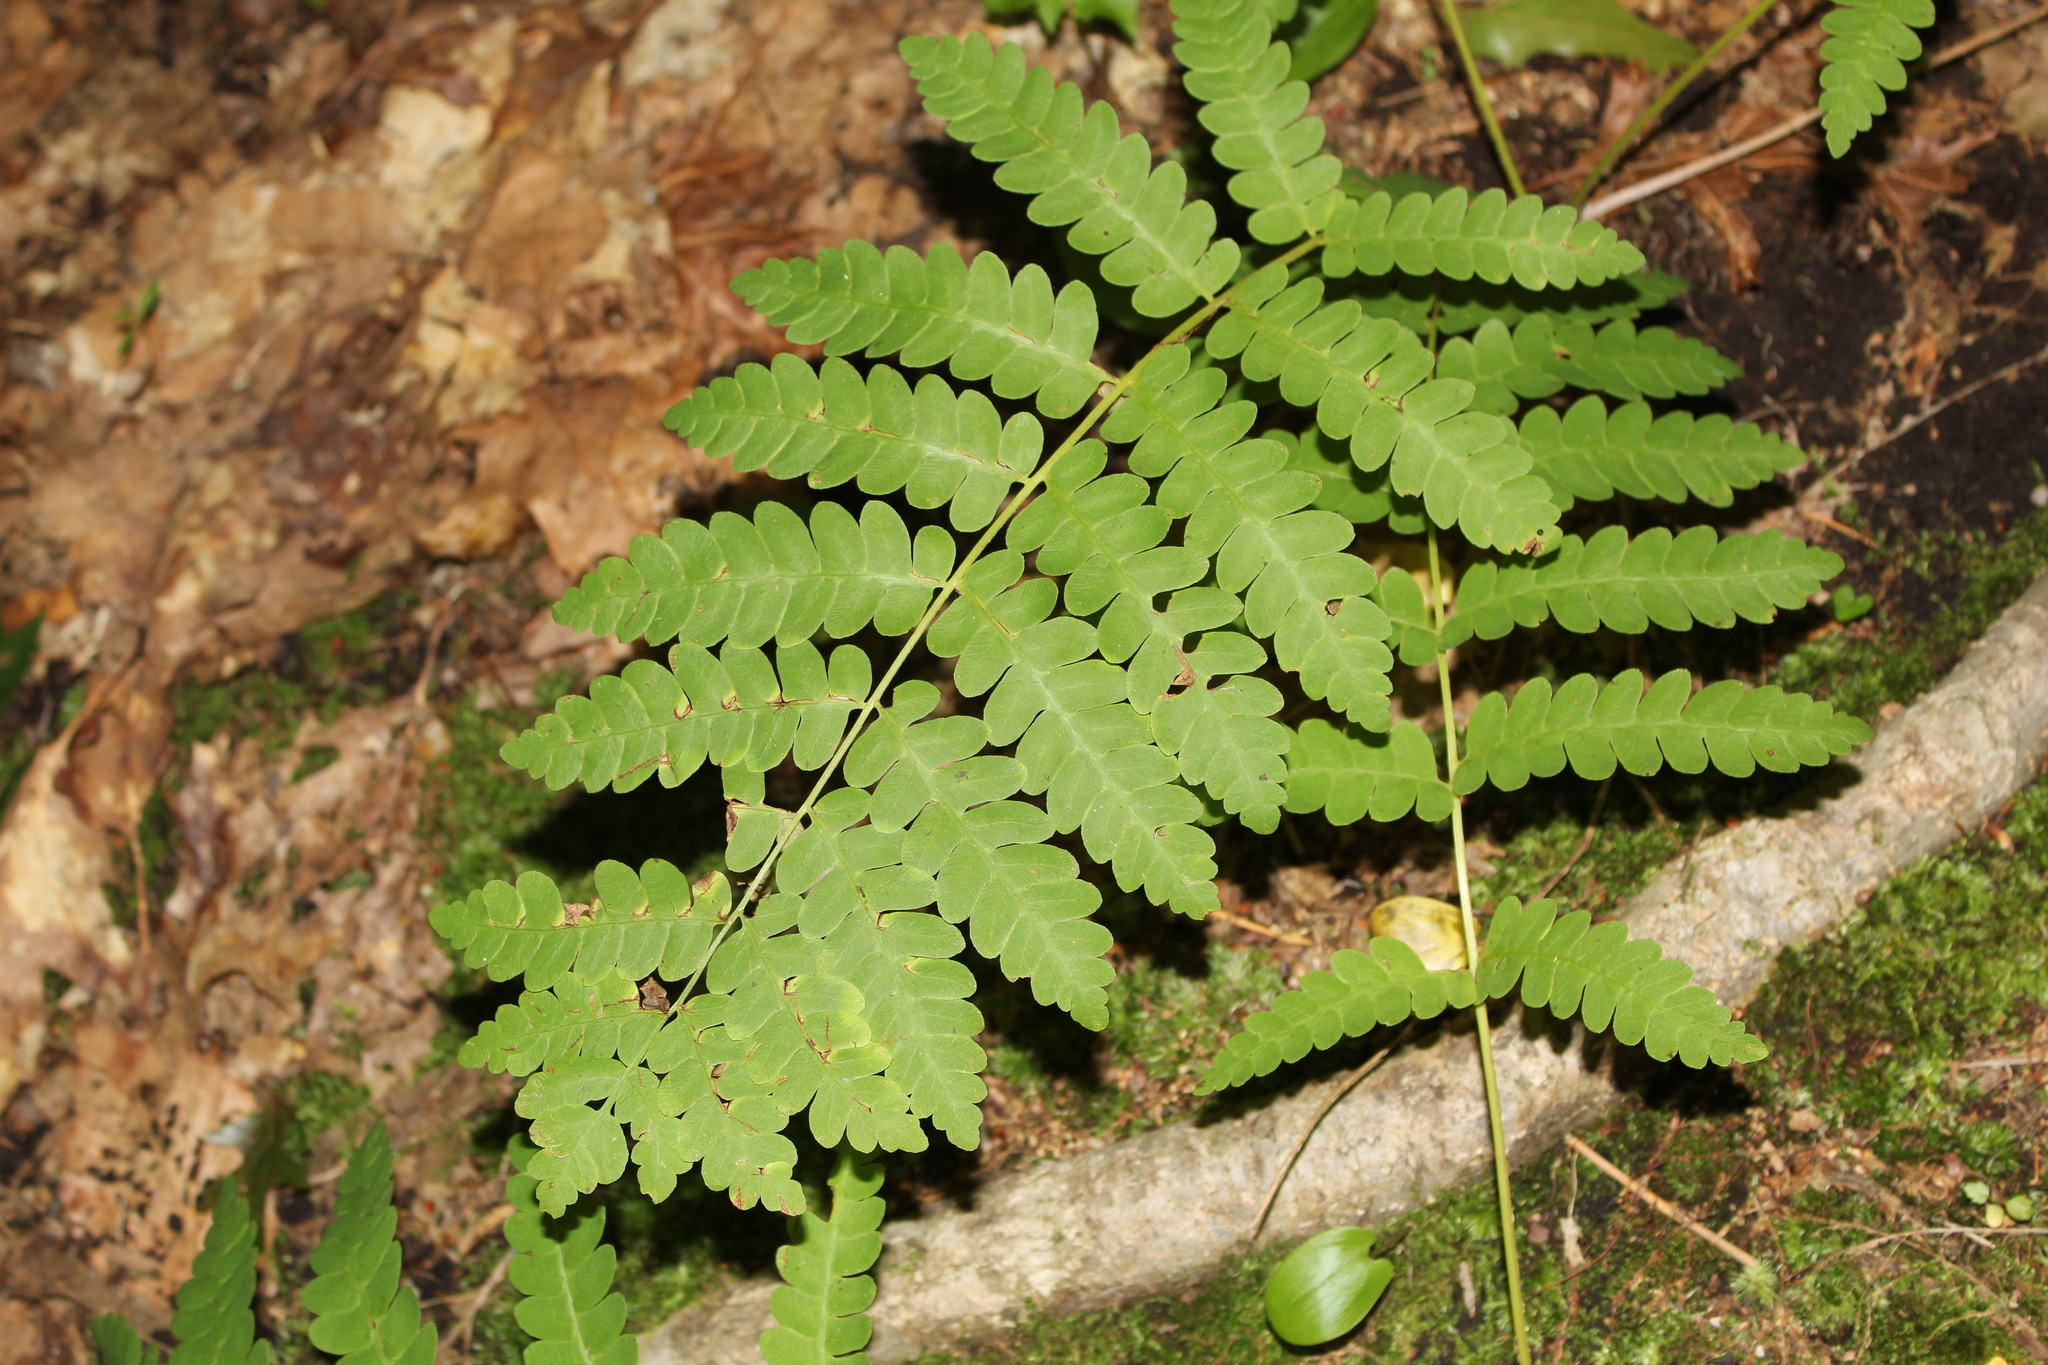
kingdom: Plantae
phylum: Tracheophyta
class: Polypodiopsida
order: Osmundales
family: Osmundaceae
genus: Claytosmunda
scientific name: Claytosmunda claytoniana
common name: Clayton's fern
